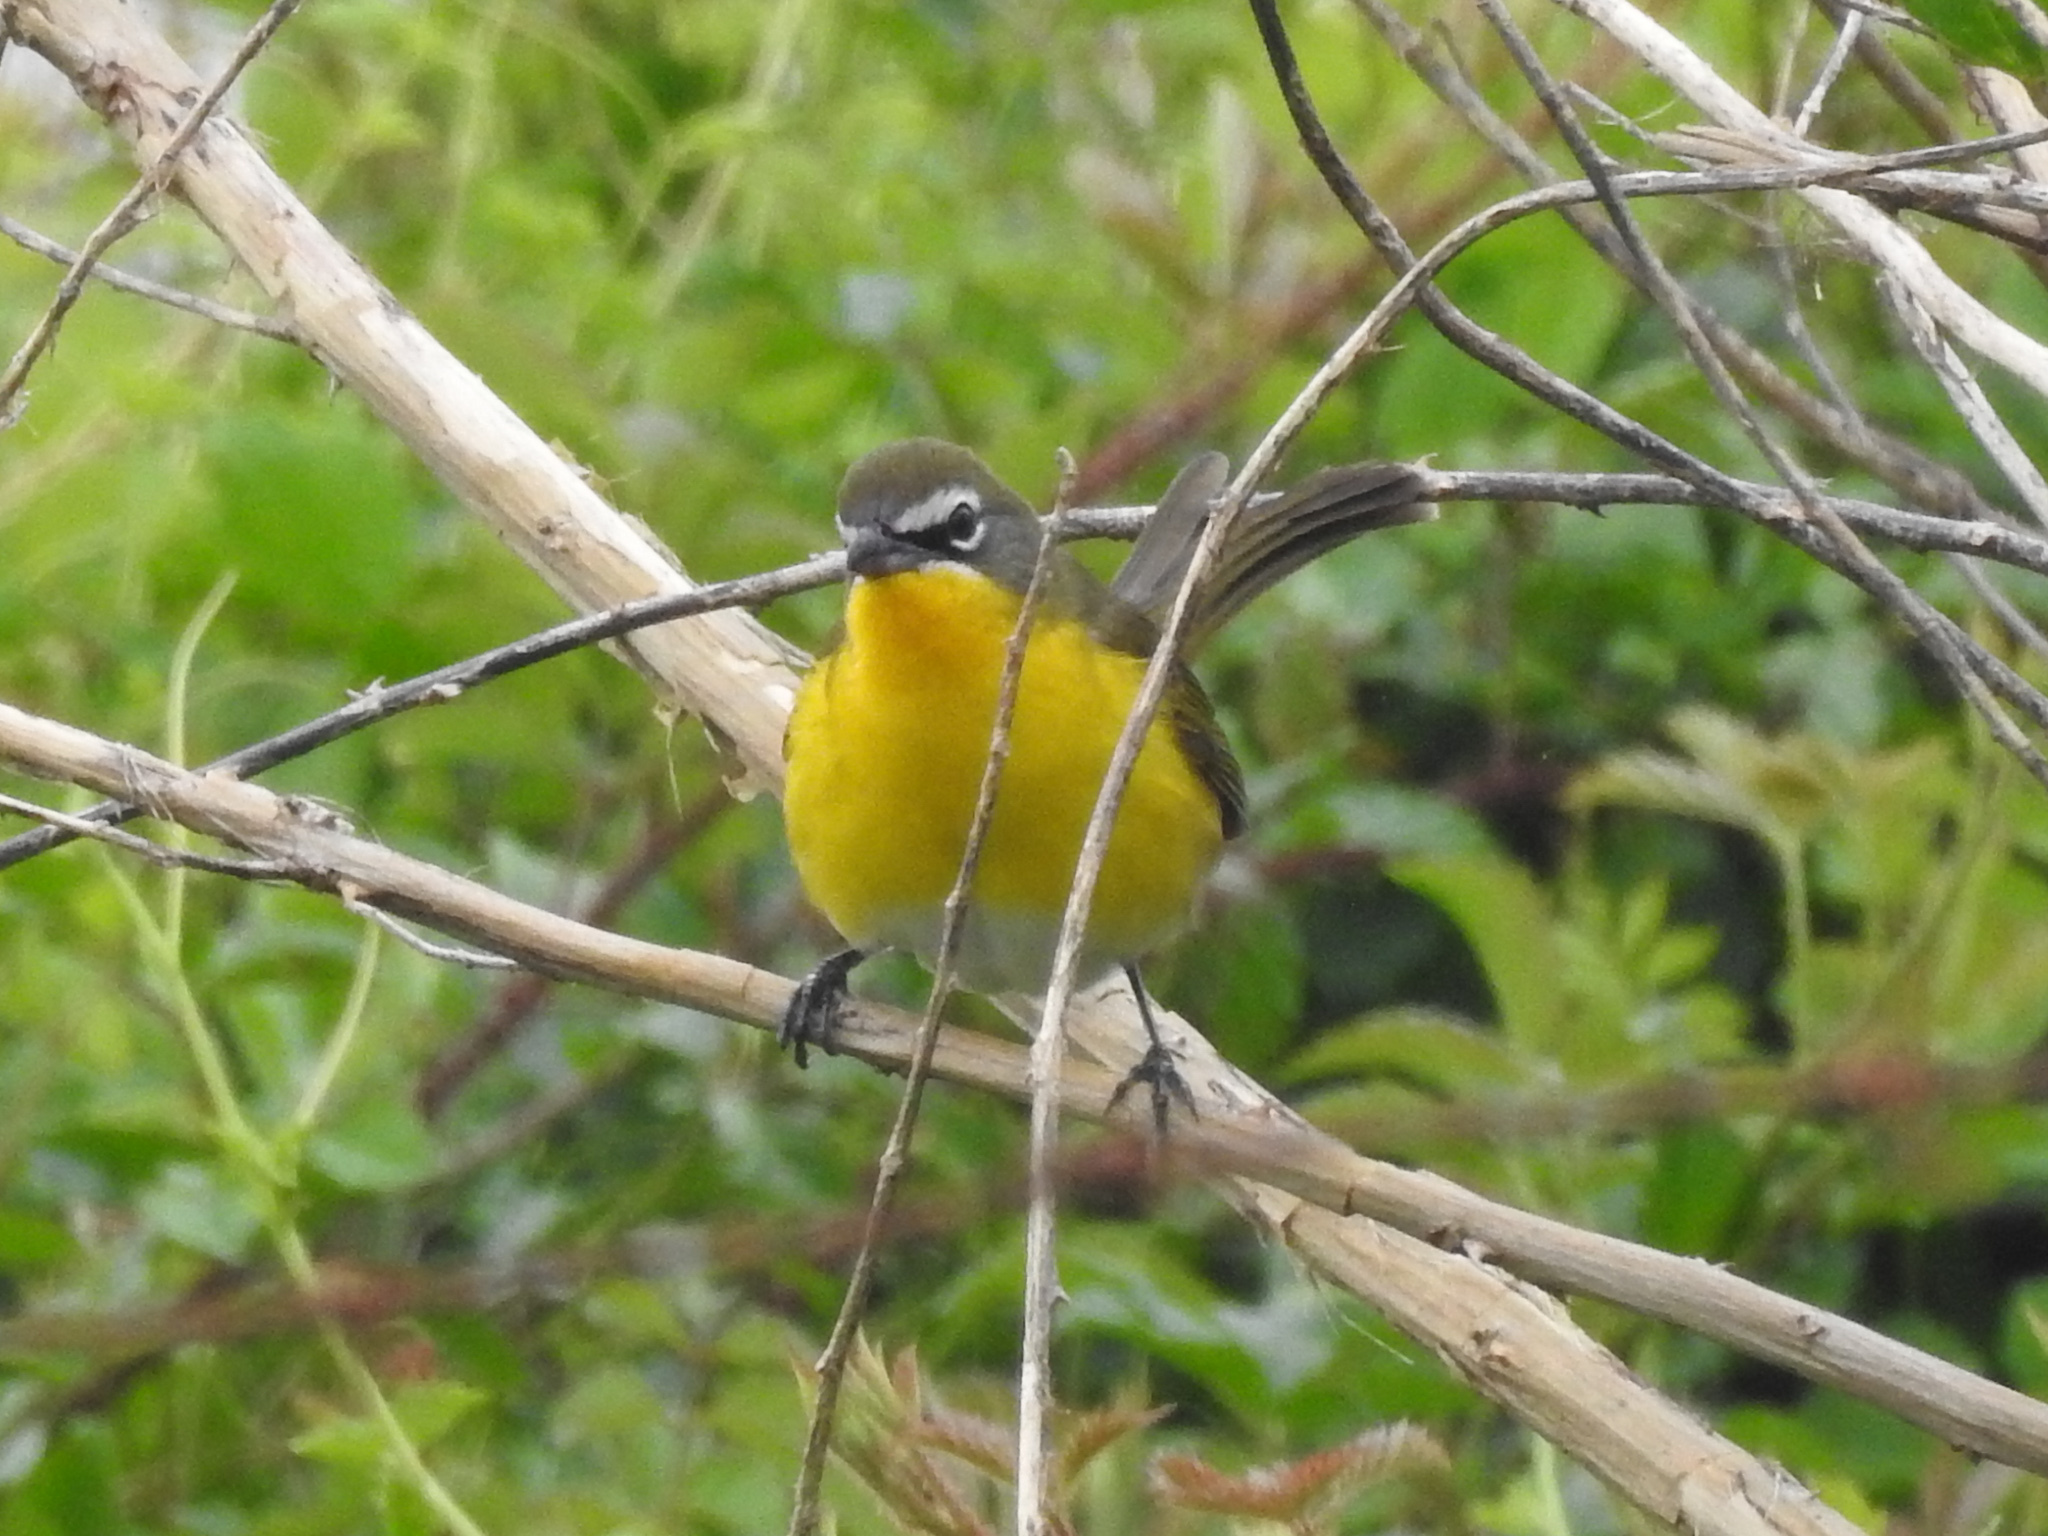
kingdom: Animalia
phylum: Chordata
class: Aves
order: Passeriformes
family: Parulidae
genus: Icteria
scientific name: Icteria virens
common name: Yellow-breasted chat
